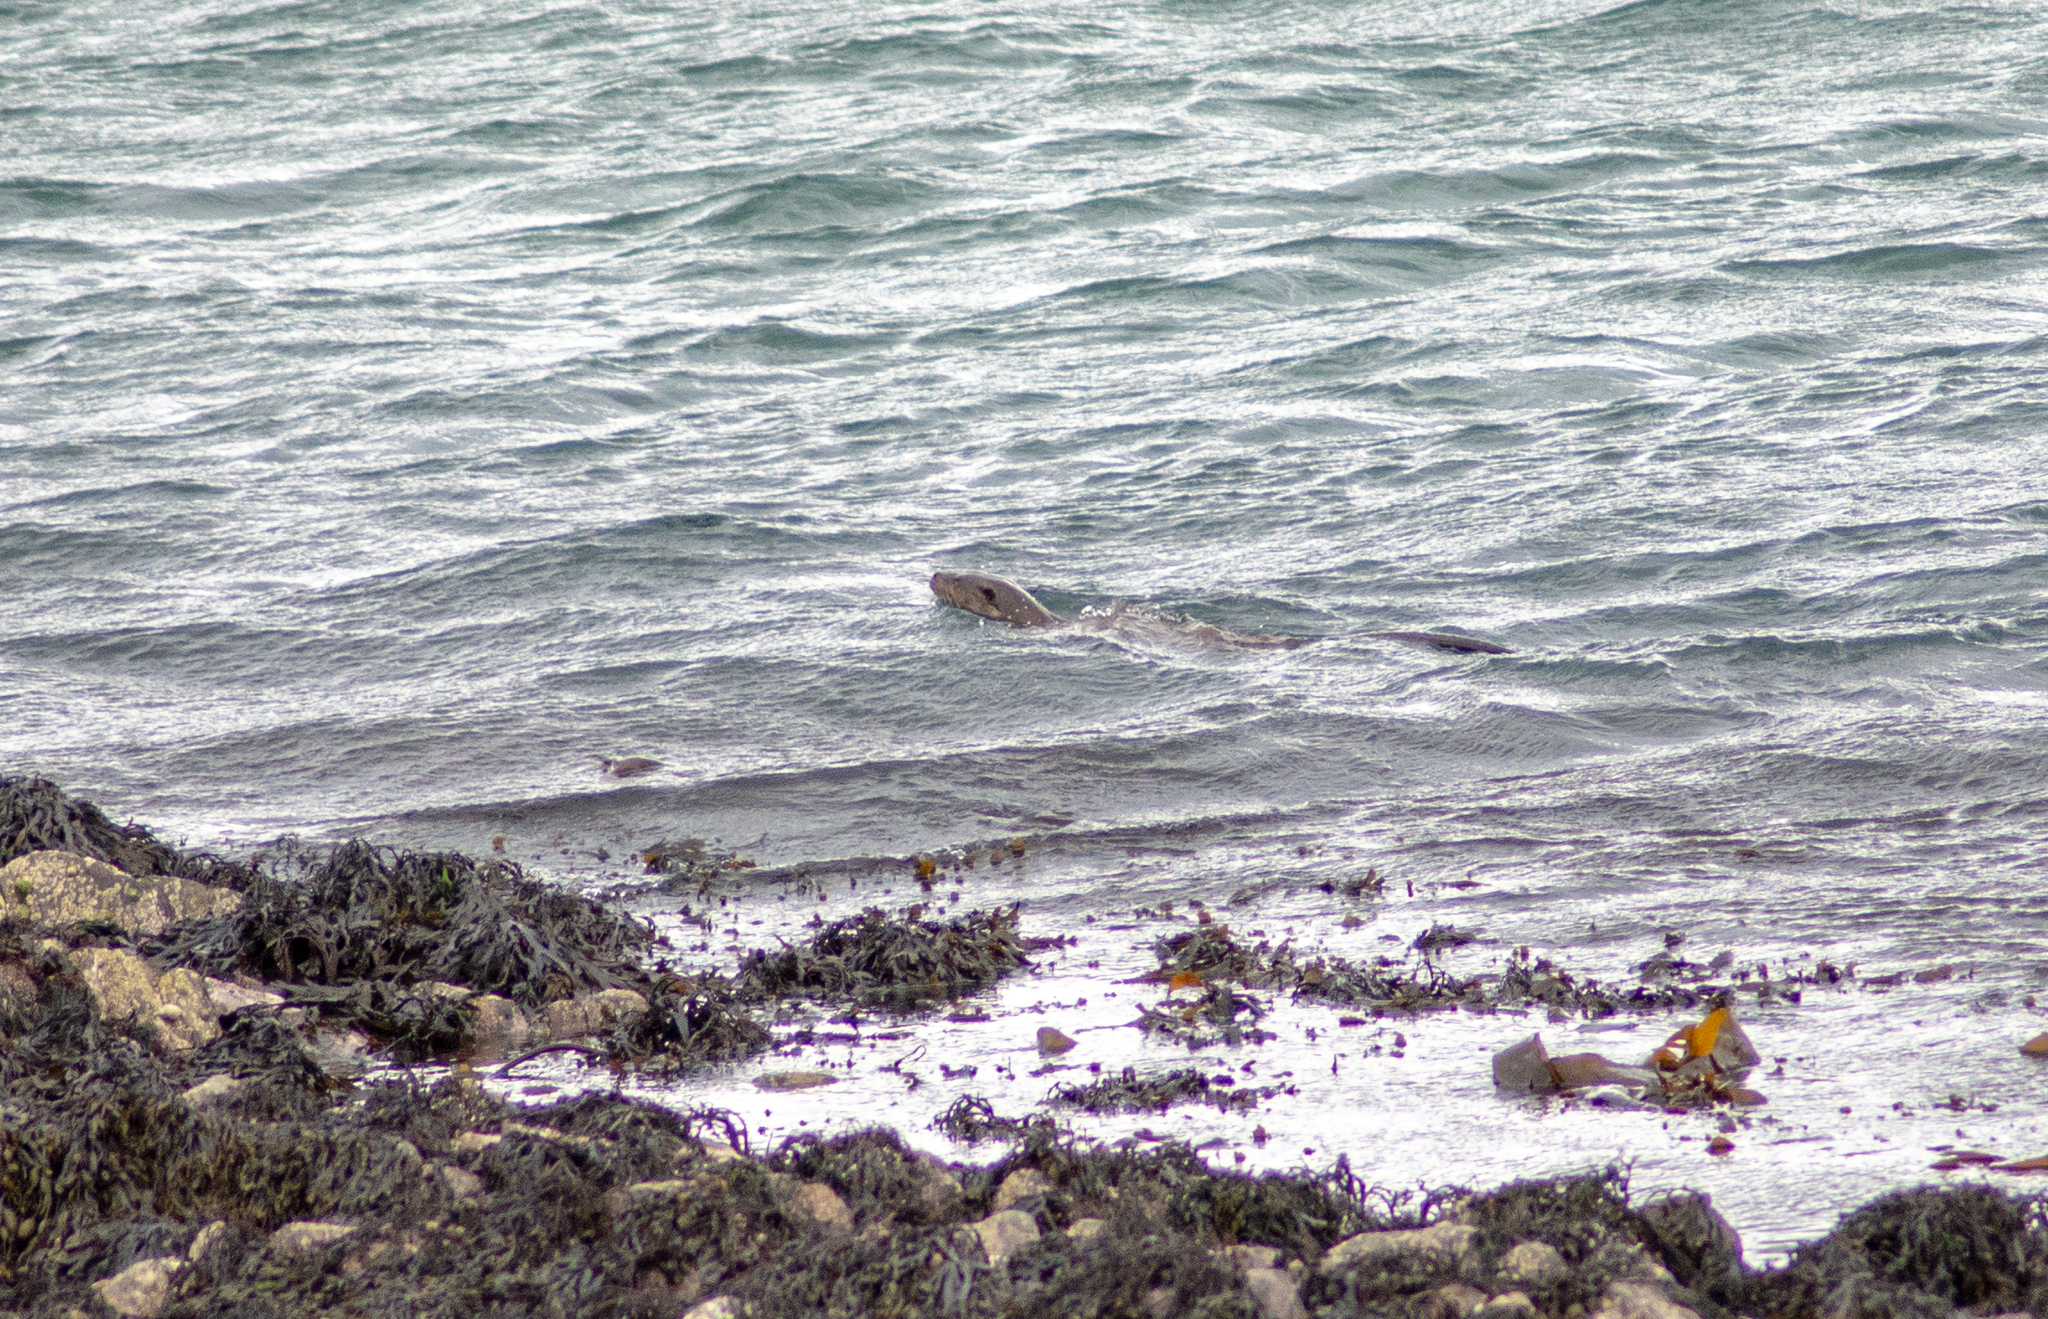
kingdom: Animalia
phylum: Chordata
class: Mammalia
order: Carnivora
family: Mustelidae
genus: Lutra
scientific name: Lutra lutra
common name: European otter
